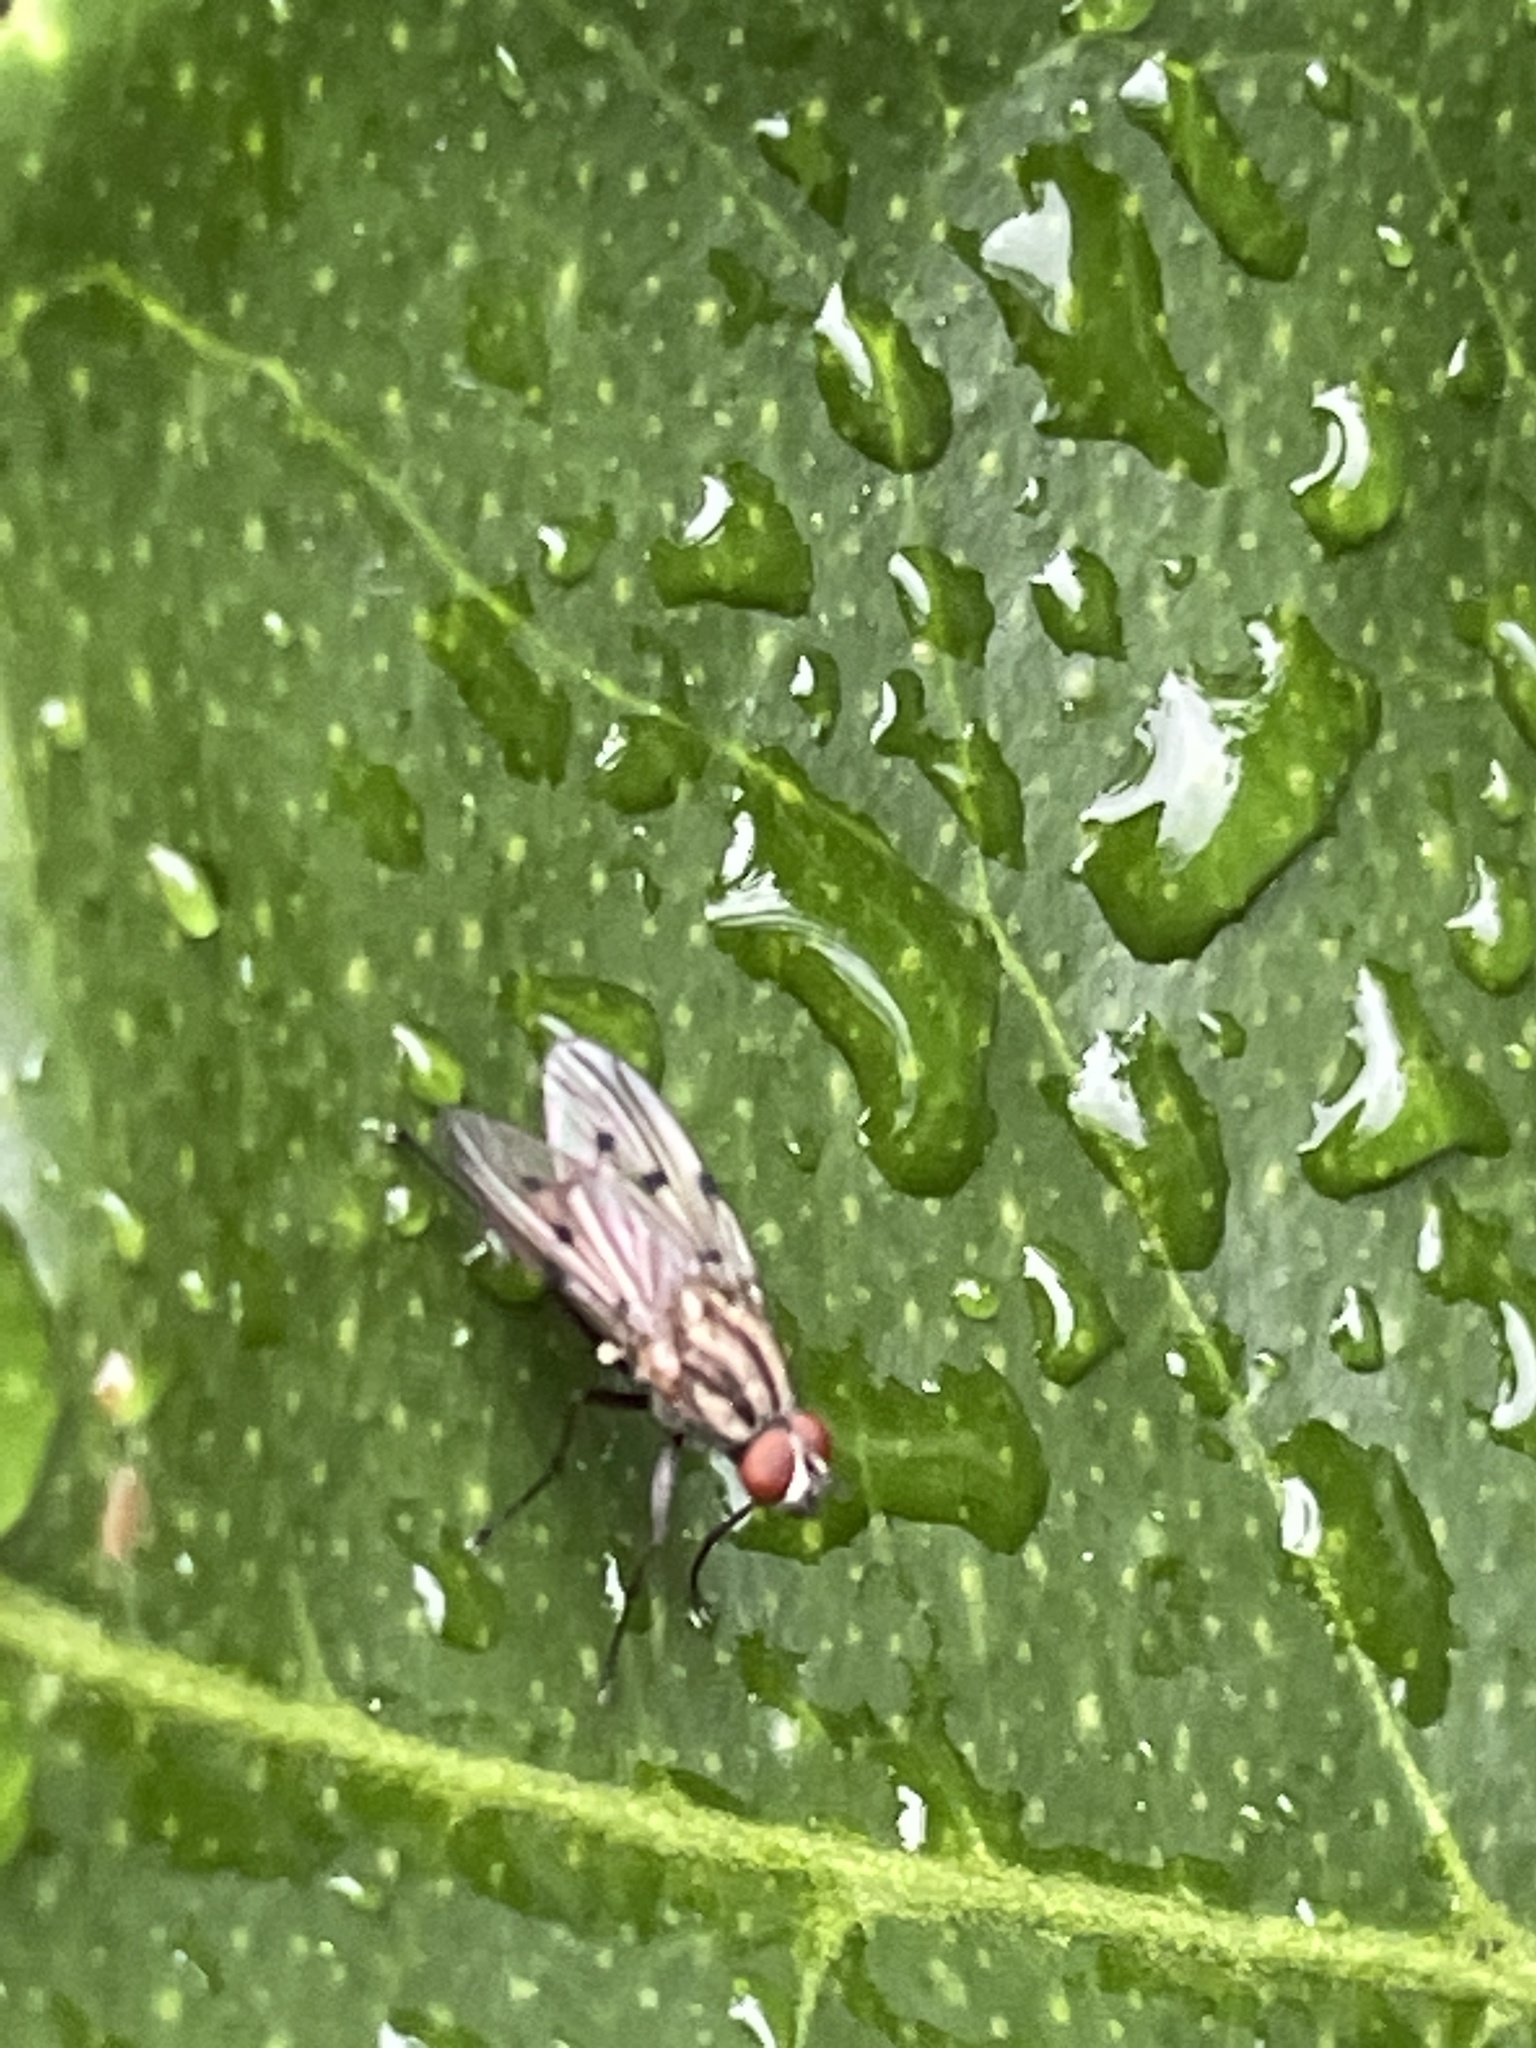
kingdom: Animalia
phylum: Arthropoda
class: Insecta
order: Diptera
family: Anthomyiidae
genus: Anthomyia
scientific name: Anthomyia punctipennis
